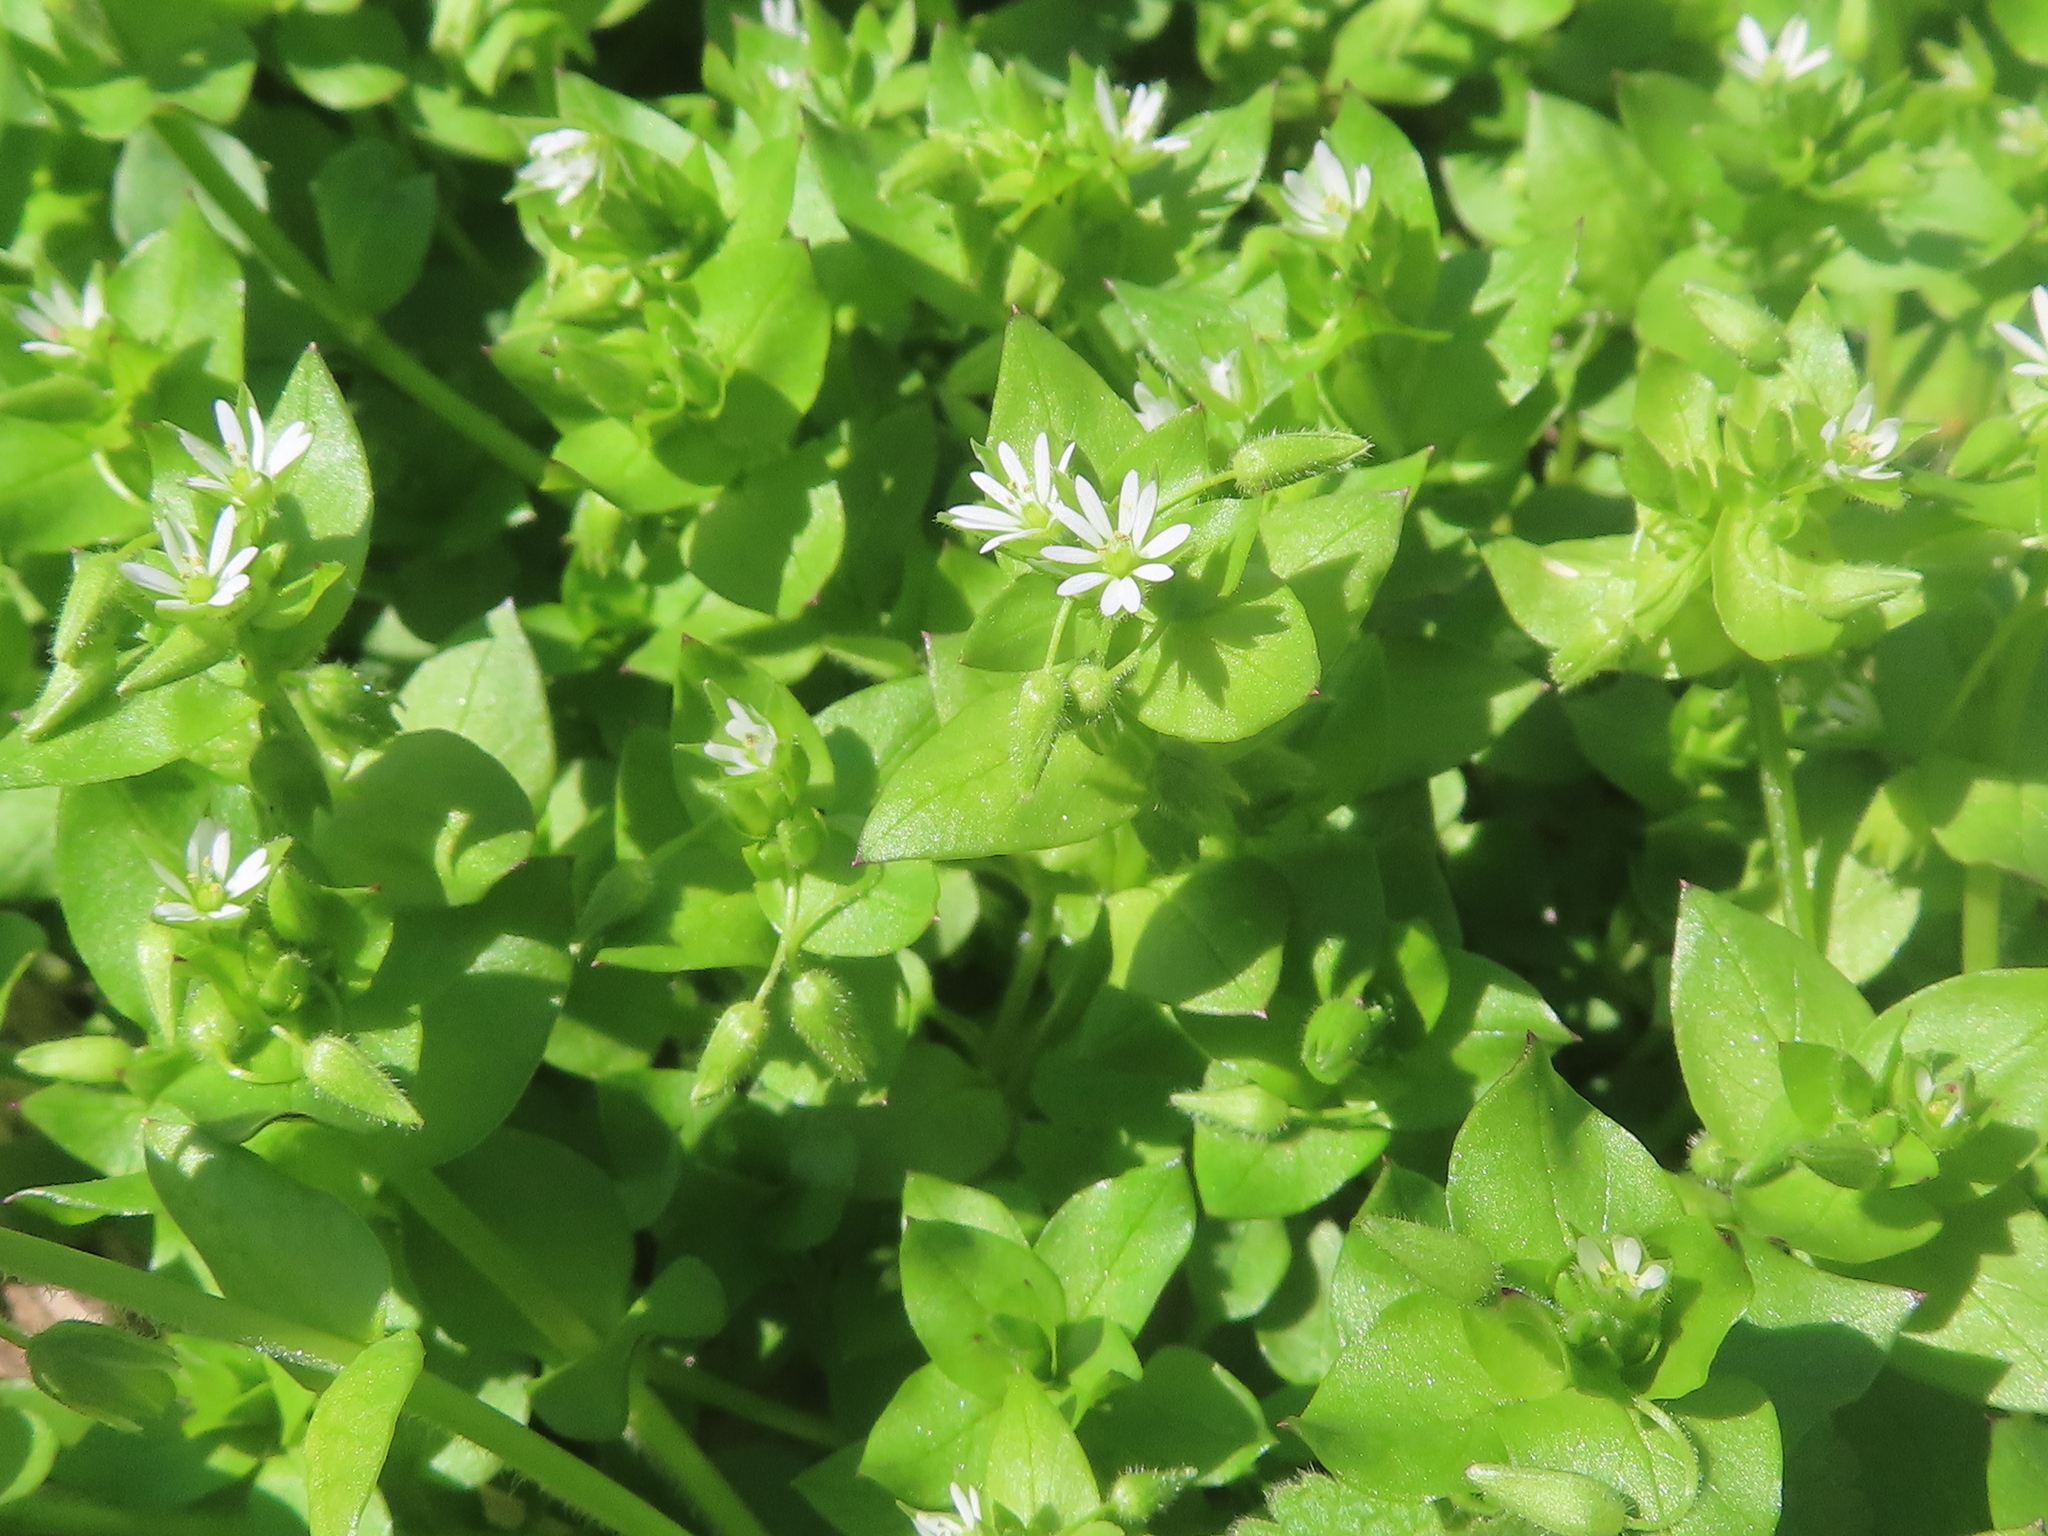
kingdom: Plantae
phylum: Tracheophyta
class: Magnoliopsida
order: Caryophyllales
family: Caryophyllaceae
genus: Stellaria
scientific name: Stellaria media
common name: Common chickweed
